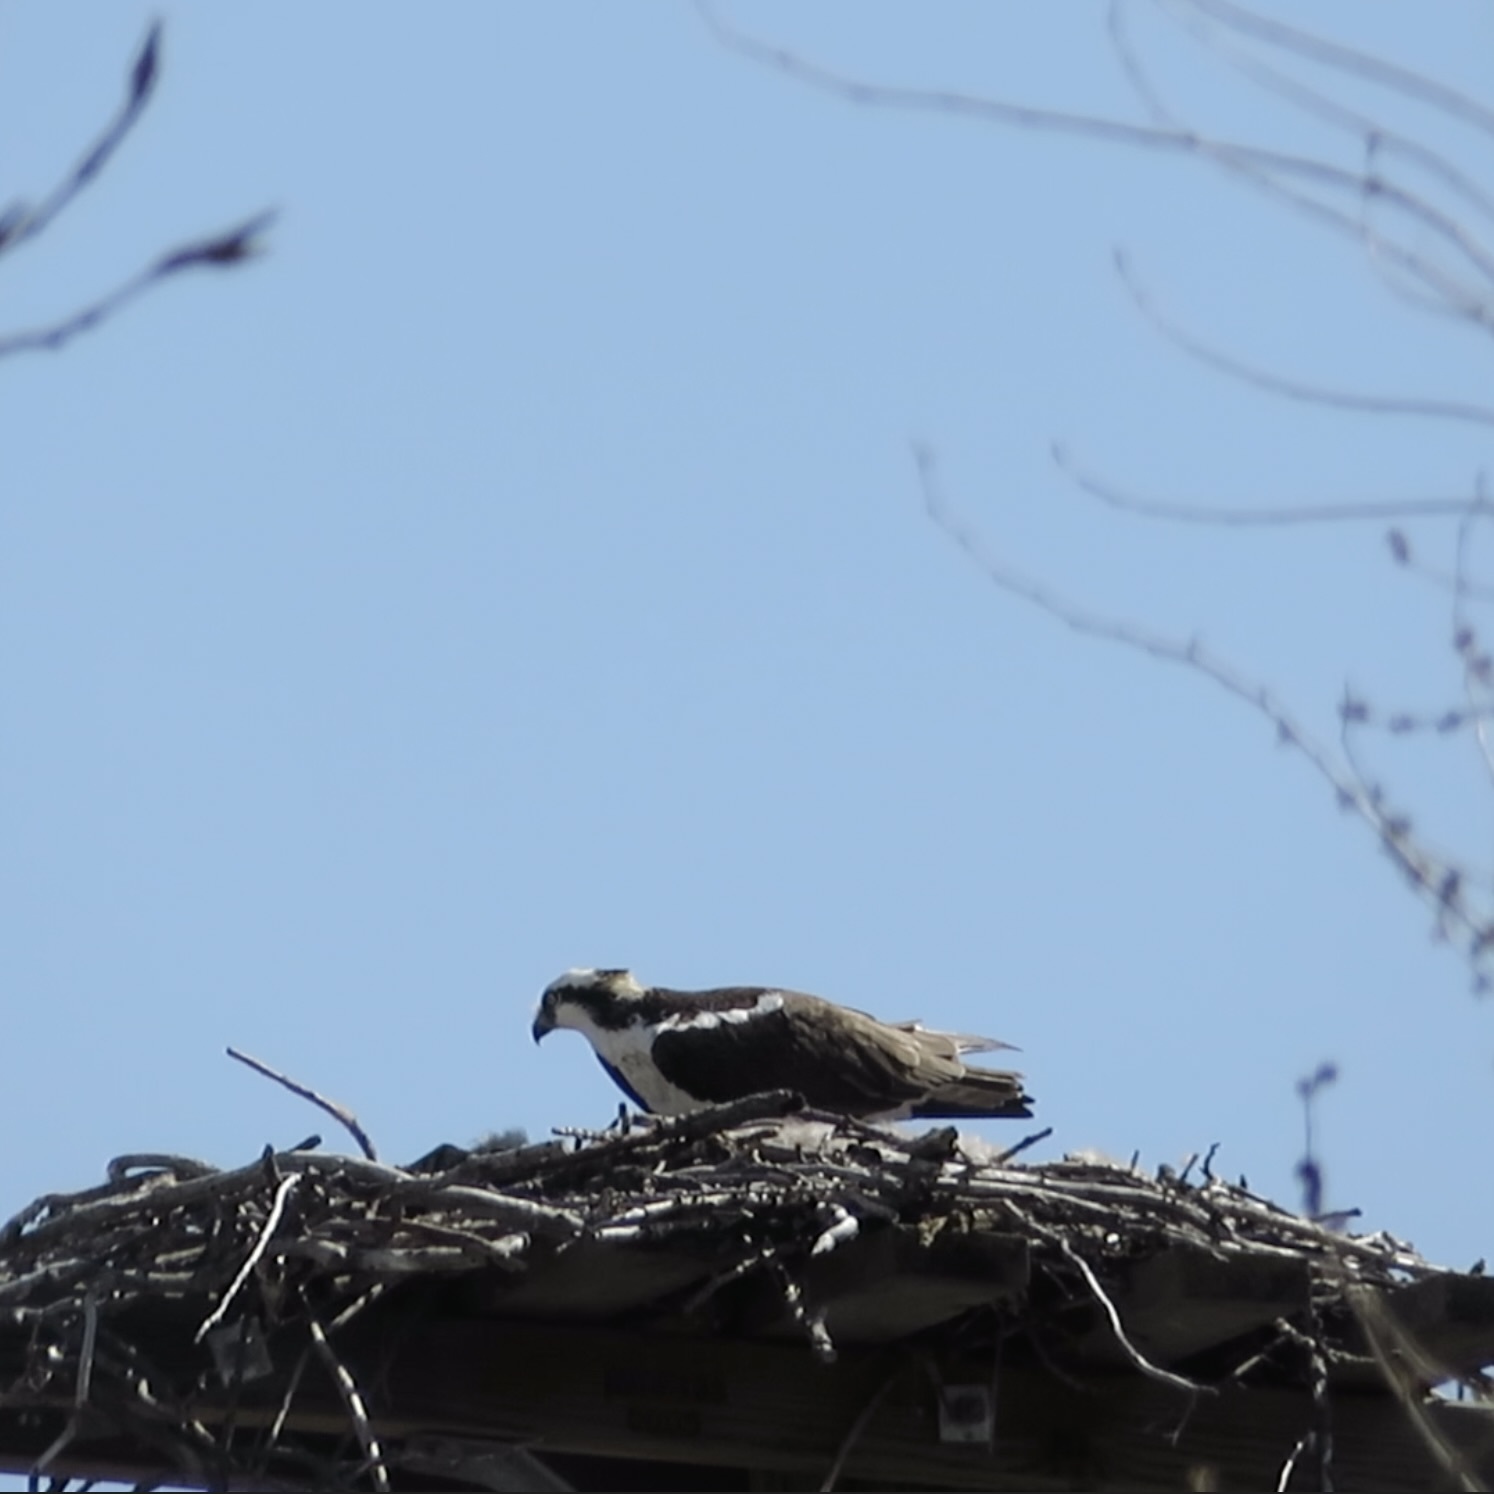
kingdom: Animalia
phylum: Chordata
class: Aves
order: Accipitriformes
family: Pandionidae
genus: Pandion
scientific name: Pandion haliaetus
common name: Osprey
